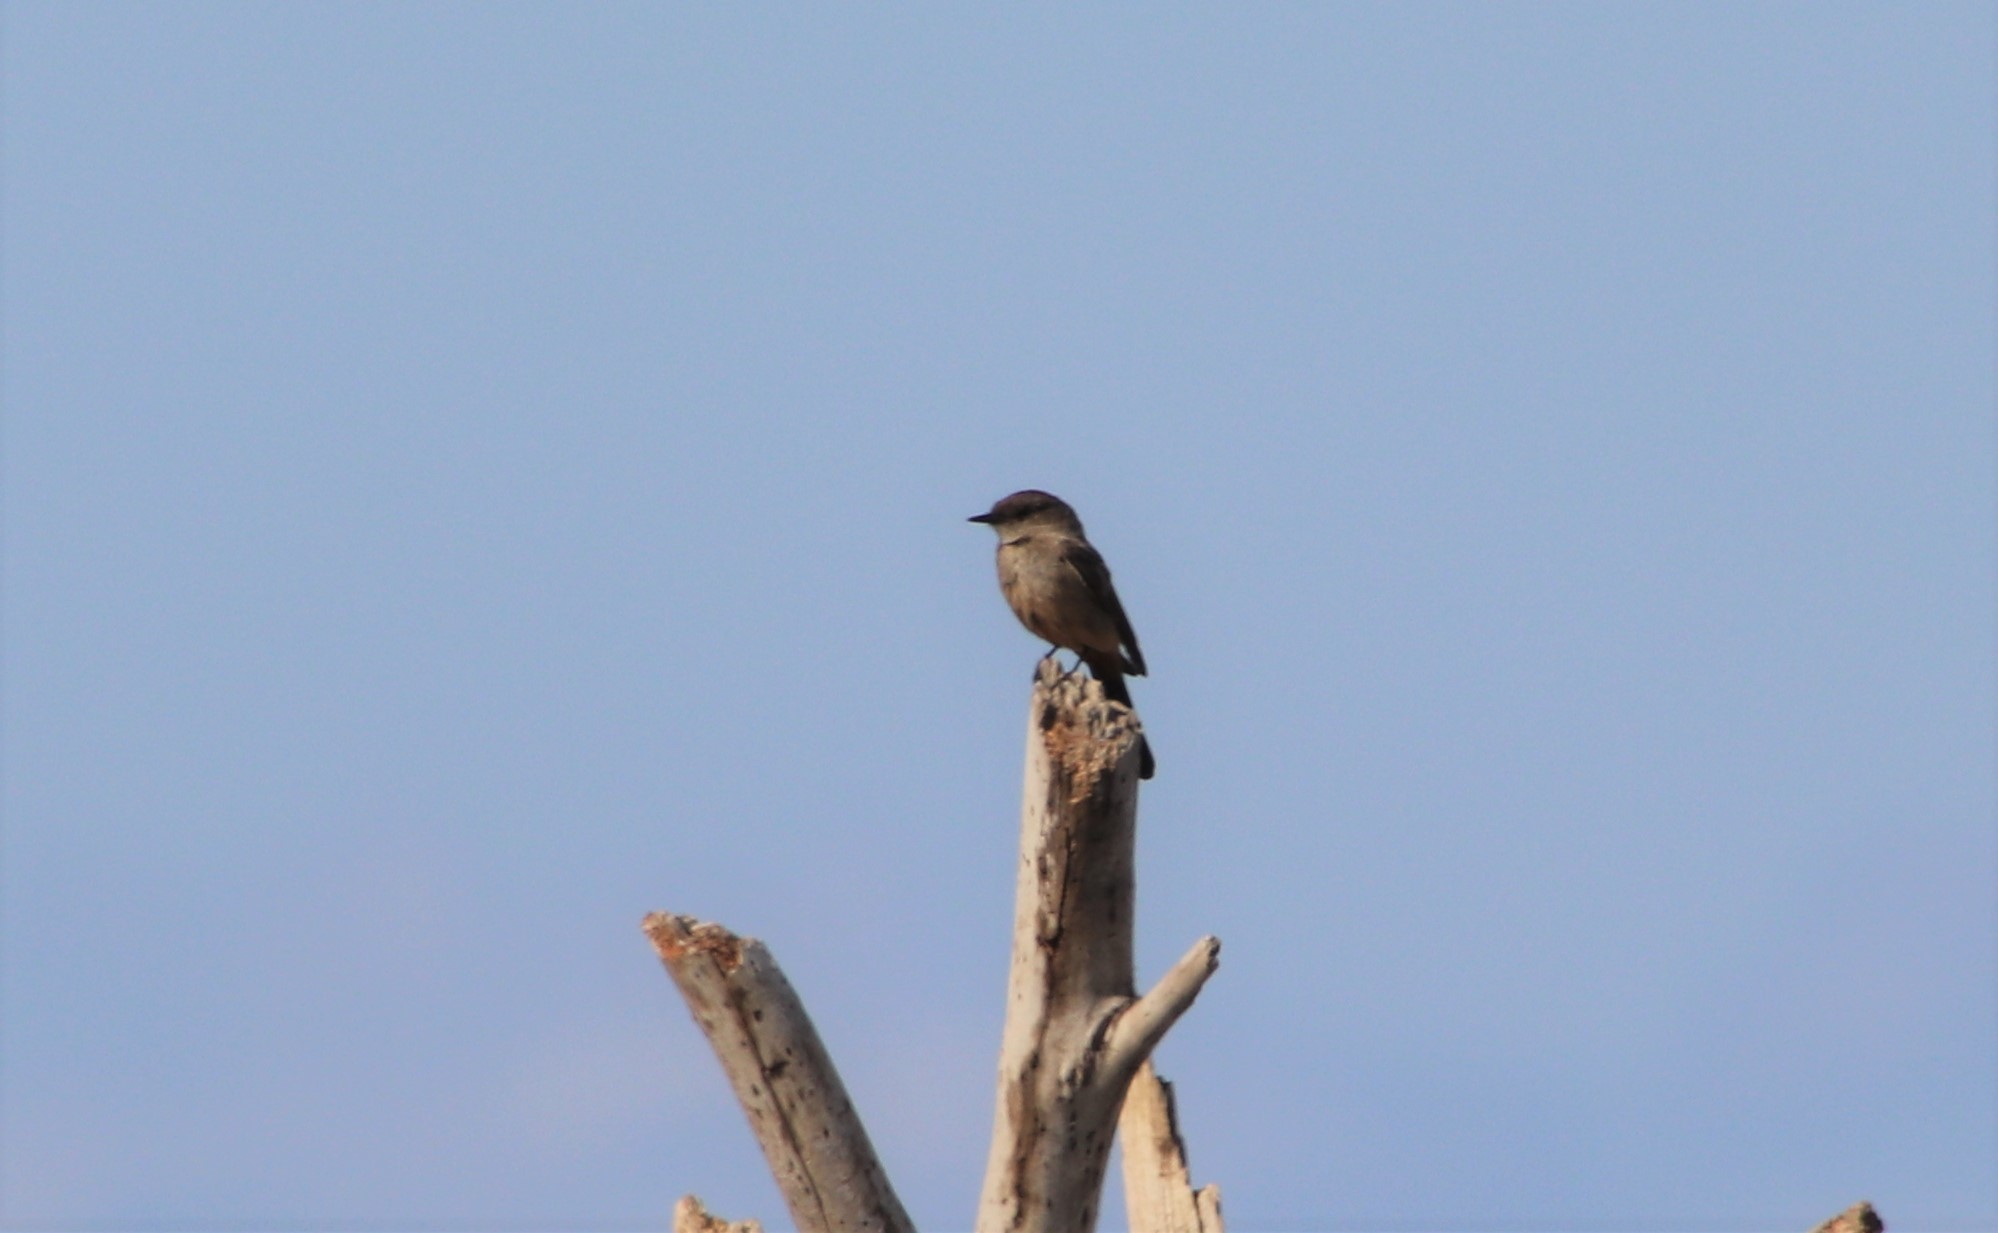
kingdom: Animalia
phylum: Chordata
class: Aves
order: Passeriformes
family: Tyrannidae
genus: Sayornis
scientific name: Sayornis saya
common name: Say's phoebe
